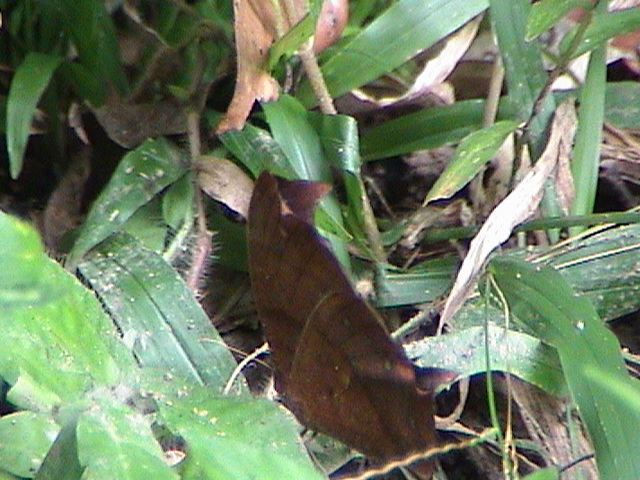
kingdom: Animalia
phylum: Arthropoda
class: Insecta
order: Lepidoptera
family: Nymphalidae
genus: Melanitis
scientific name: Melanitis phedima
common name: Dark evening brown
